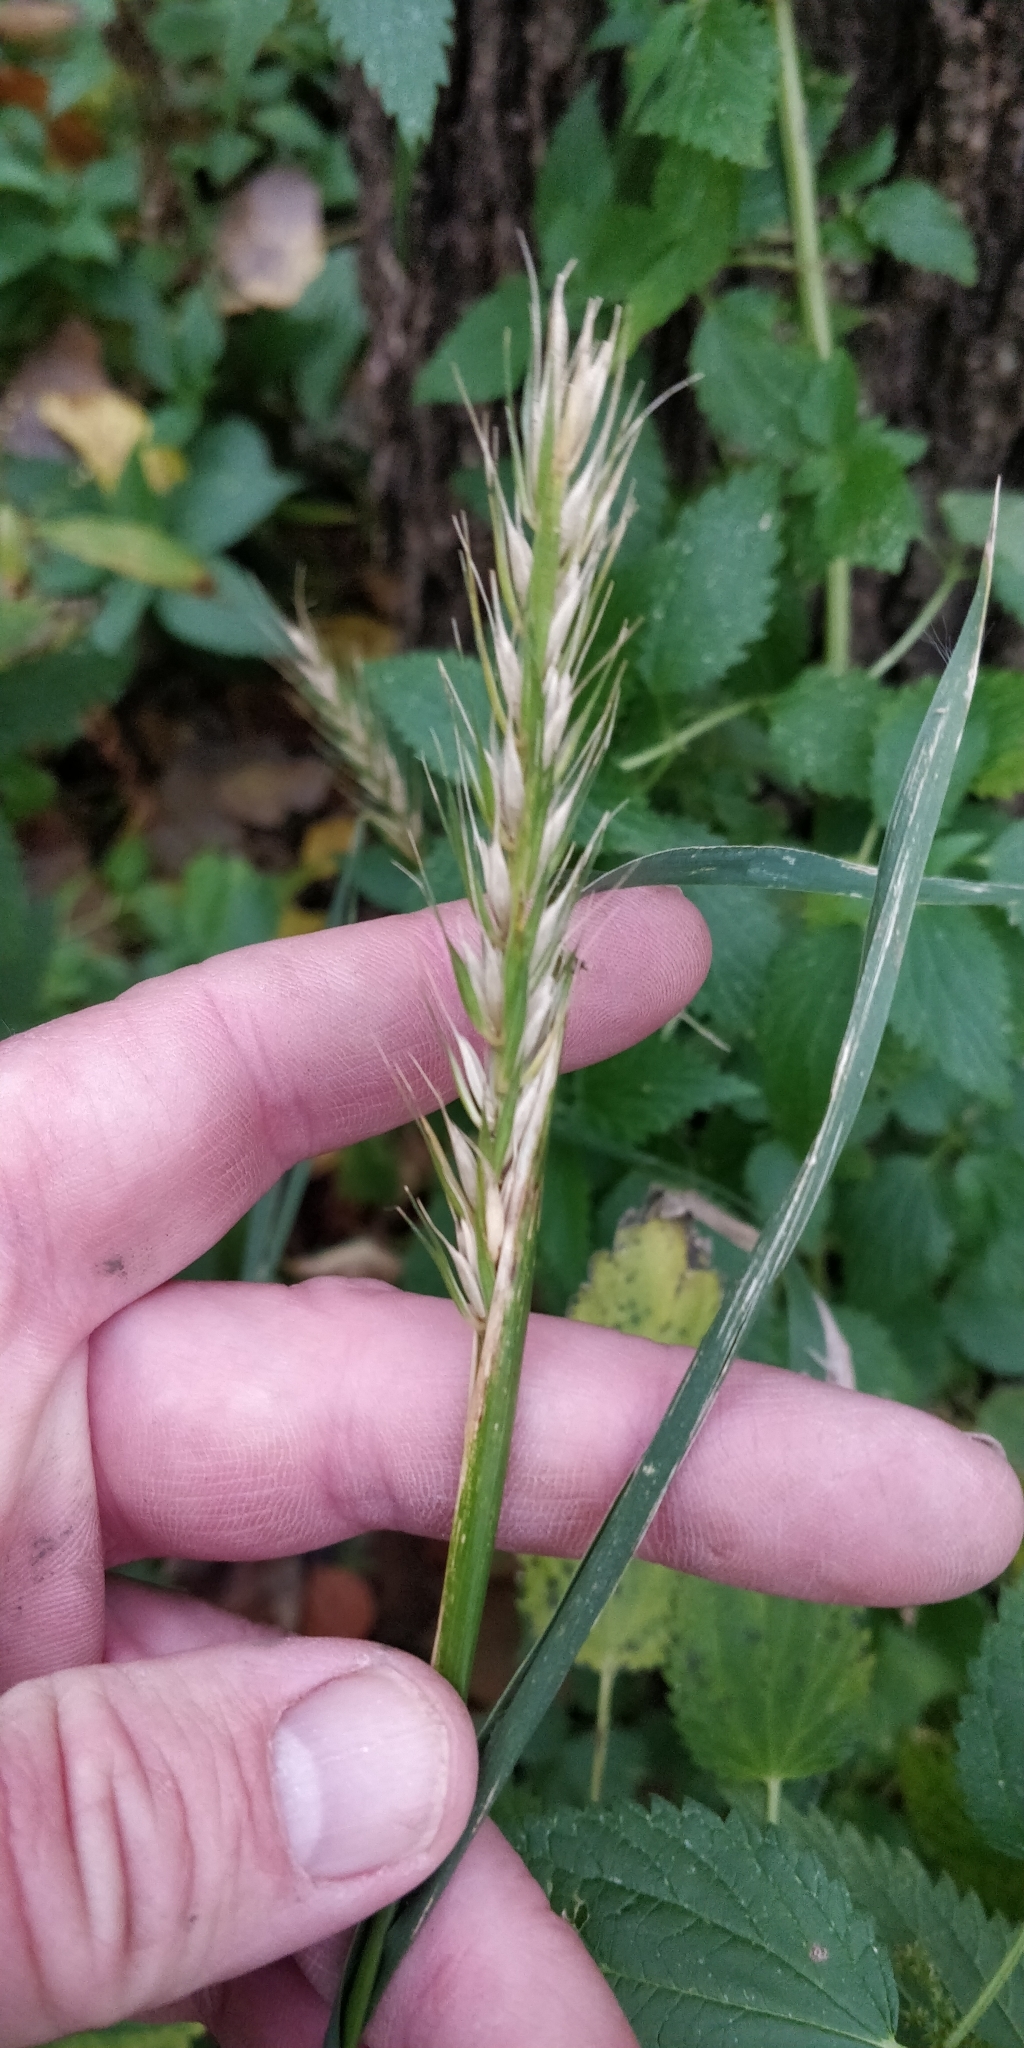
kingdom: Plantae
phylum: Tracheophyta
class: Liliopsida
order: Poales
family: Poaceae
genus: Elymus
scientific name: Elymus virginicus
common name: Common eastern wildrye
